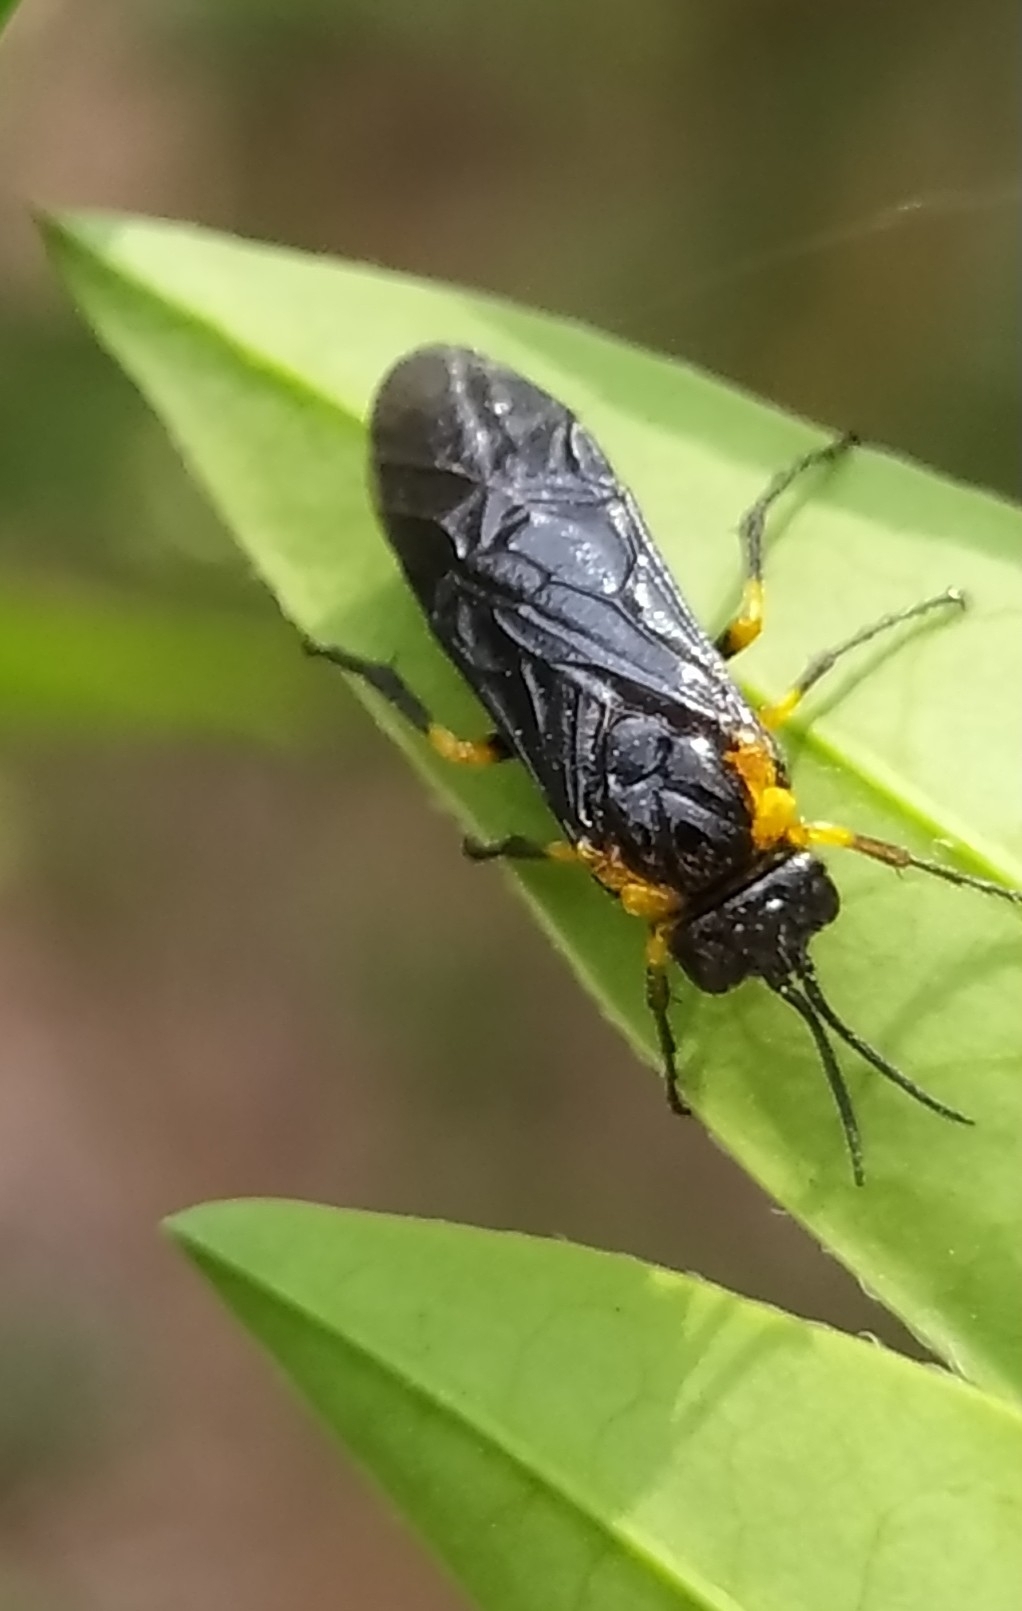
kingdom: Animalia
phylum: Arthropoda
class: Insecta
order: Hymenoptera
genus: Adurgoa
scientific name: Adurgoa
